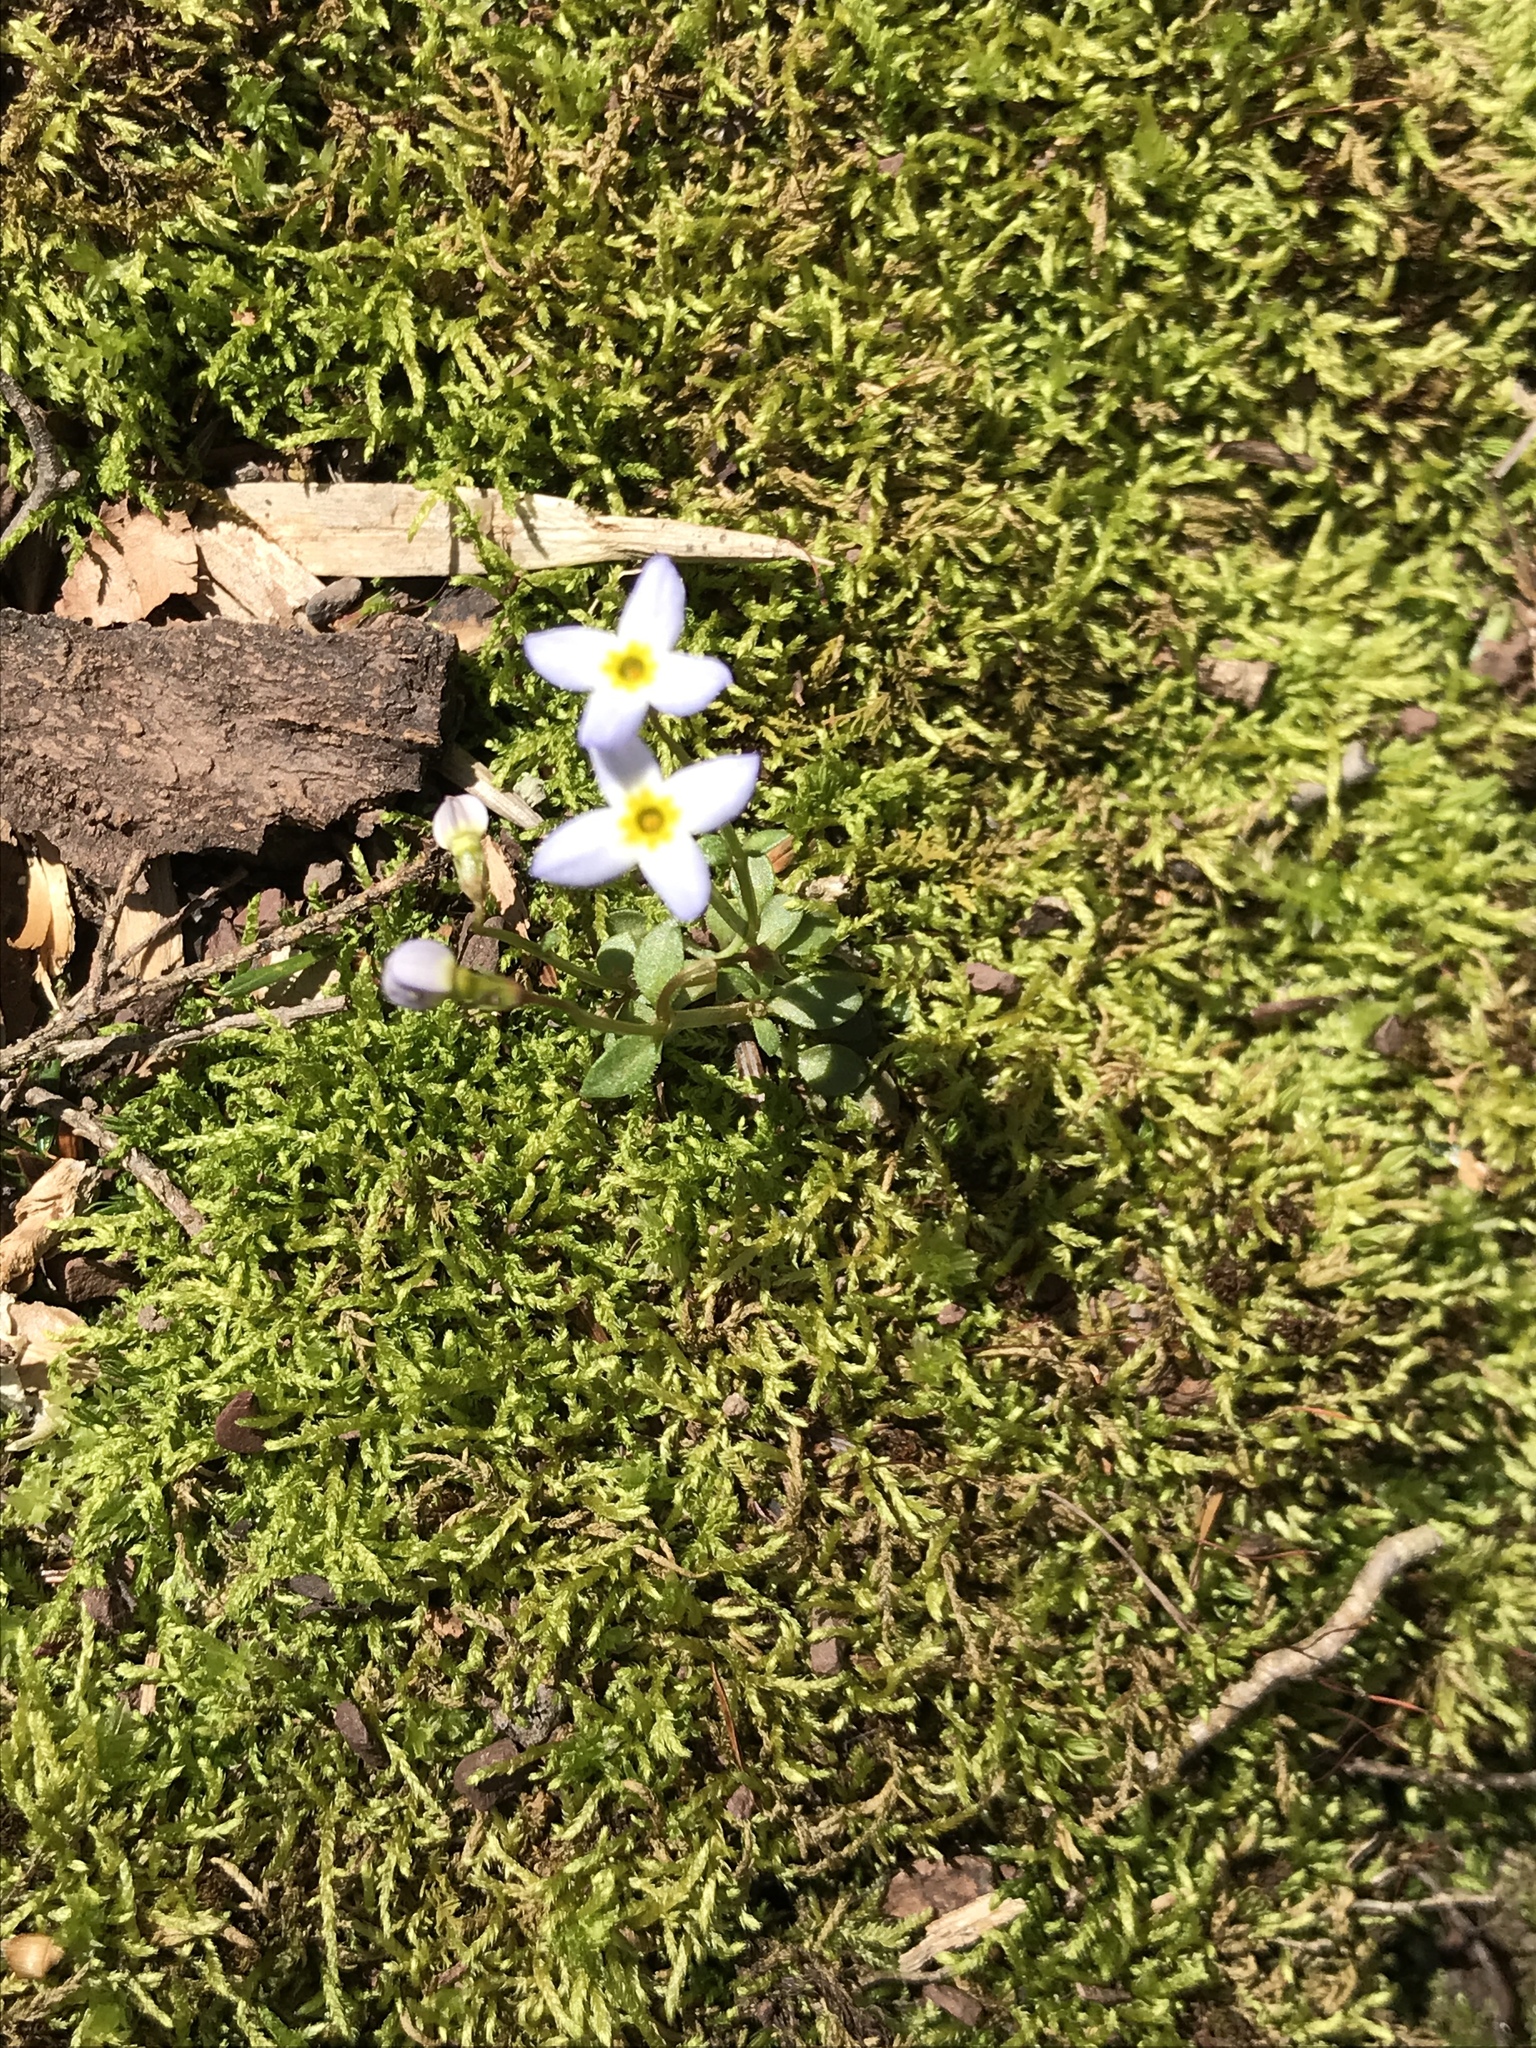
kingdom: Plantae
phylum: Tracheophyta
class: Magnoliopsida
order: Gentianales
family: Rubiaceae
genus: Houstonia
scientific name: Houstonia caerulea
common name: Bluets
